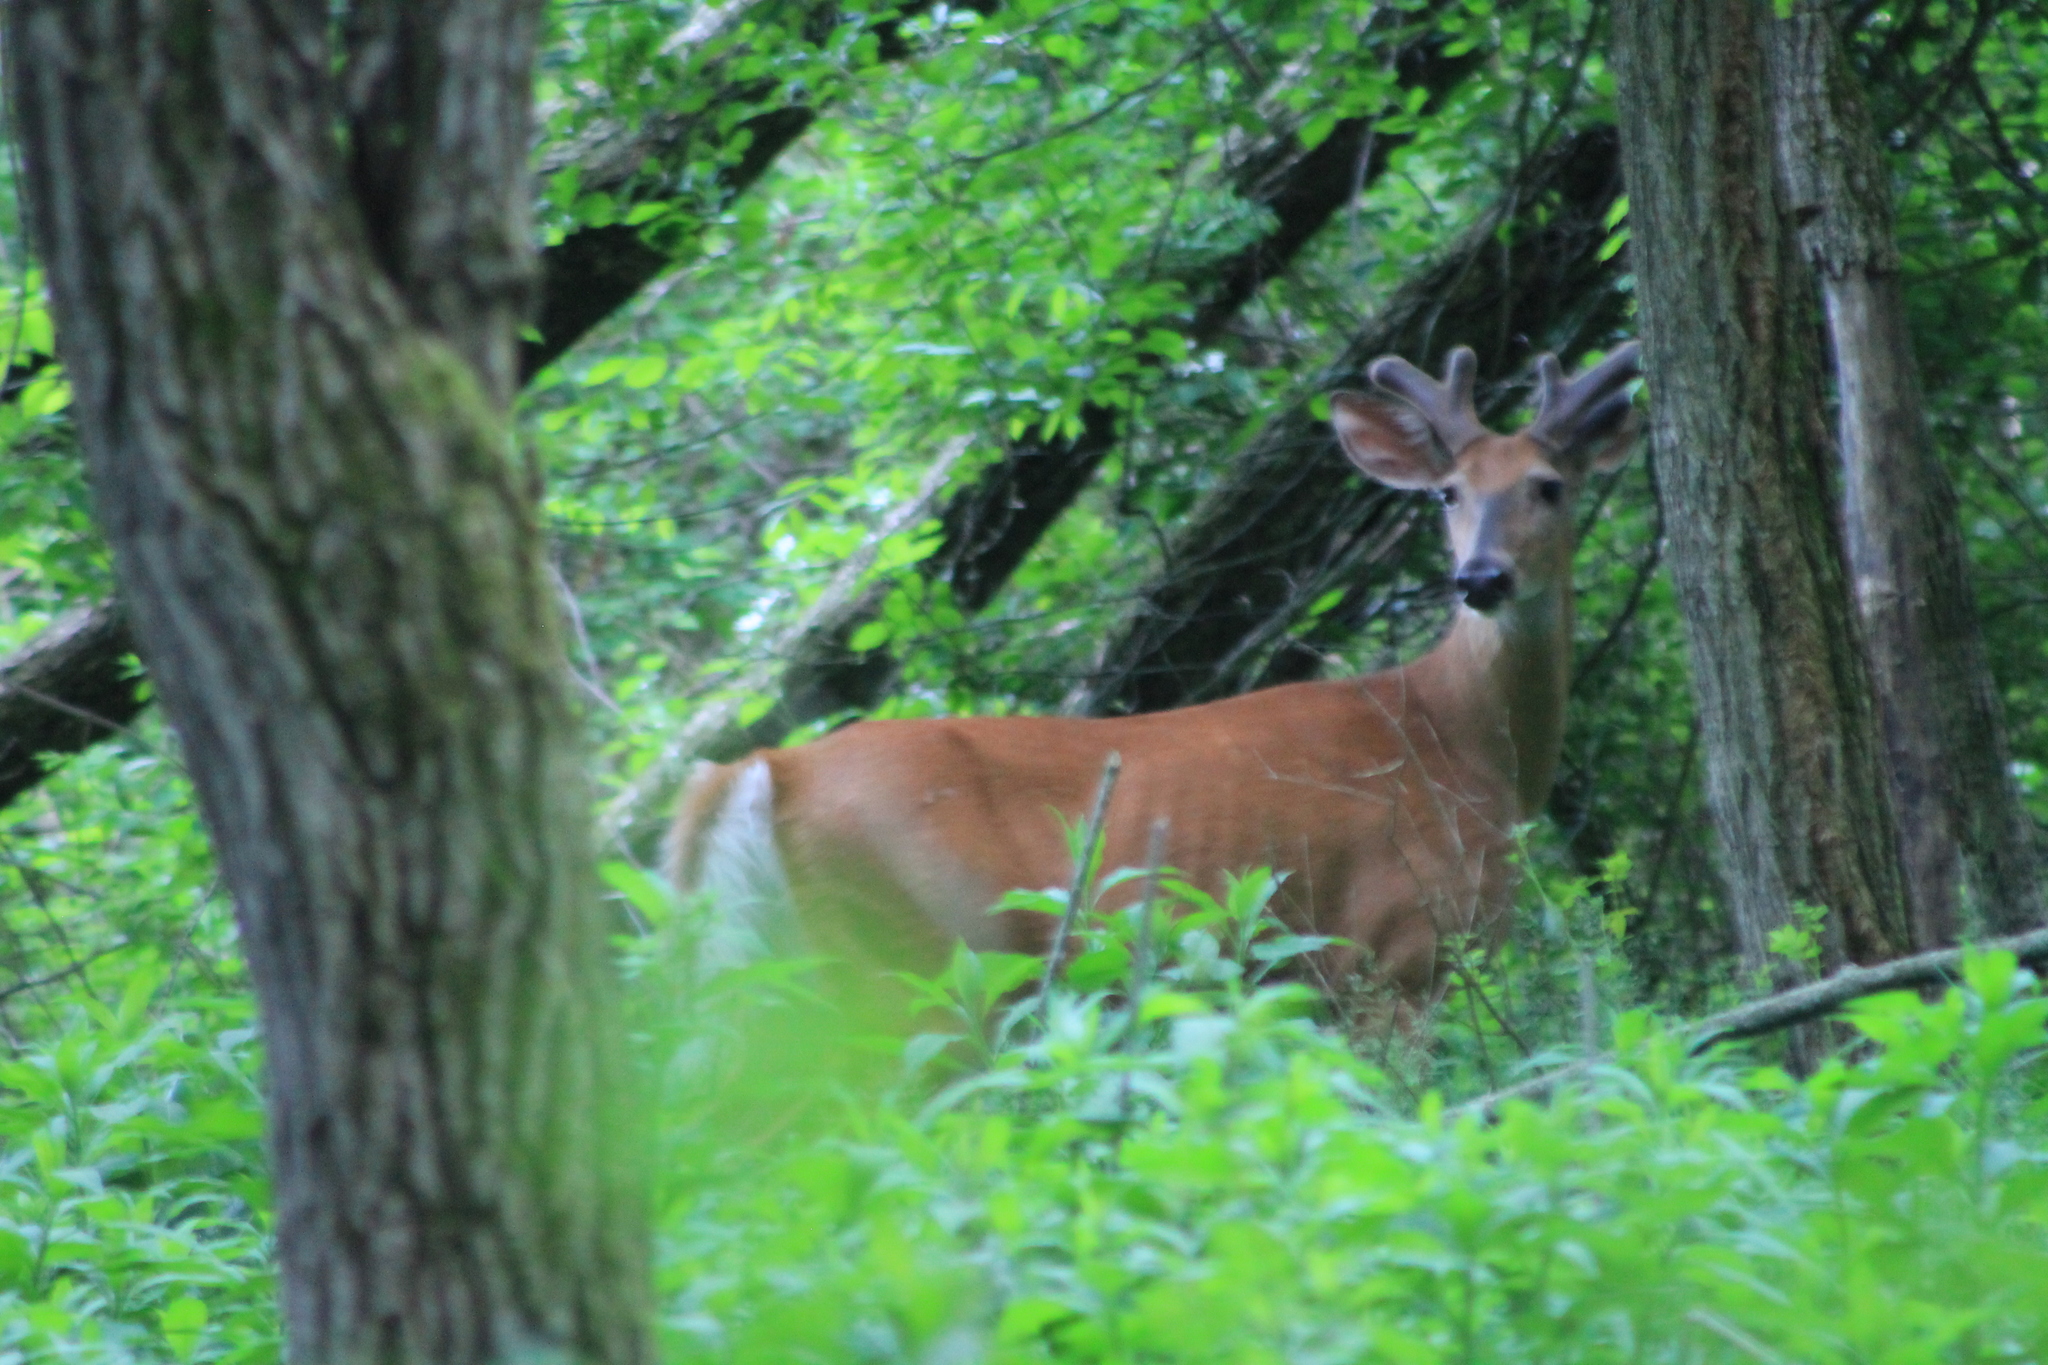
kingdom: Animalia
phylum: Chordata
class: Mammalia
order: Artiodactyla
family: Cervidae
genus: Odocoileus
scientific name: Odocoileus virginianus
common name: White-tailed deer
